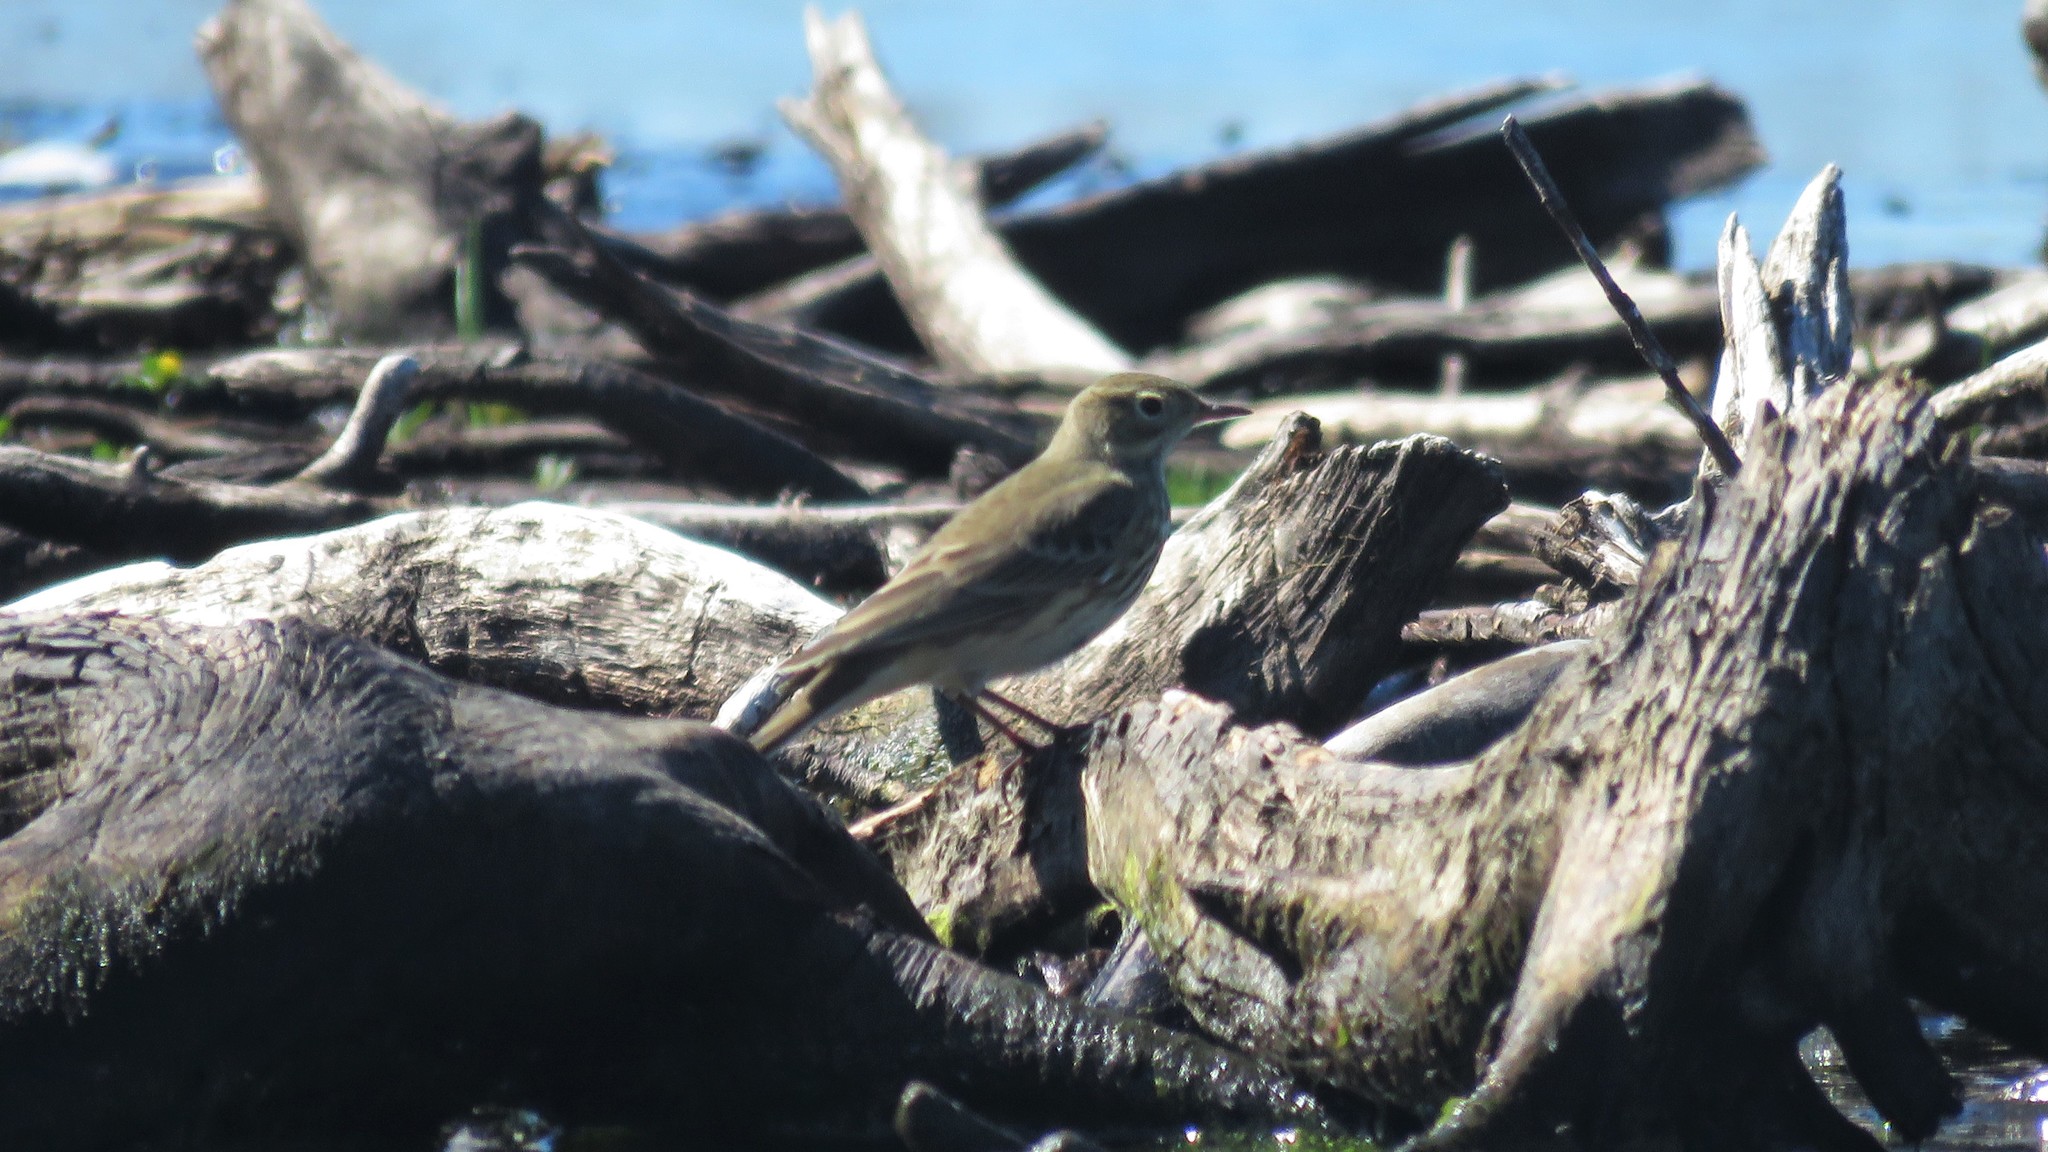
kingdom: Animalia
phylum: Chordata
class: Aves
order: Passeriformes
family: Motacillidae
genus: Anthus
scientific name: Anthus rubescens
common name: Buff-bellied pipit
